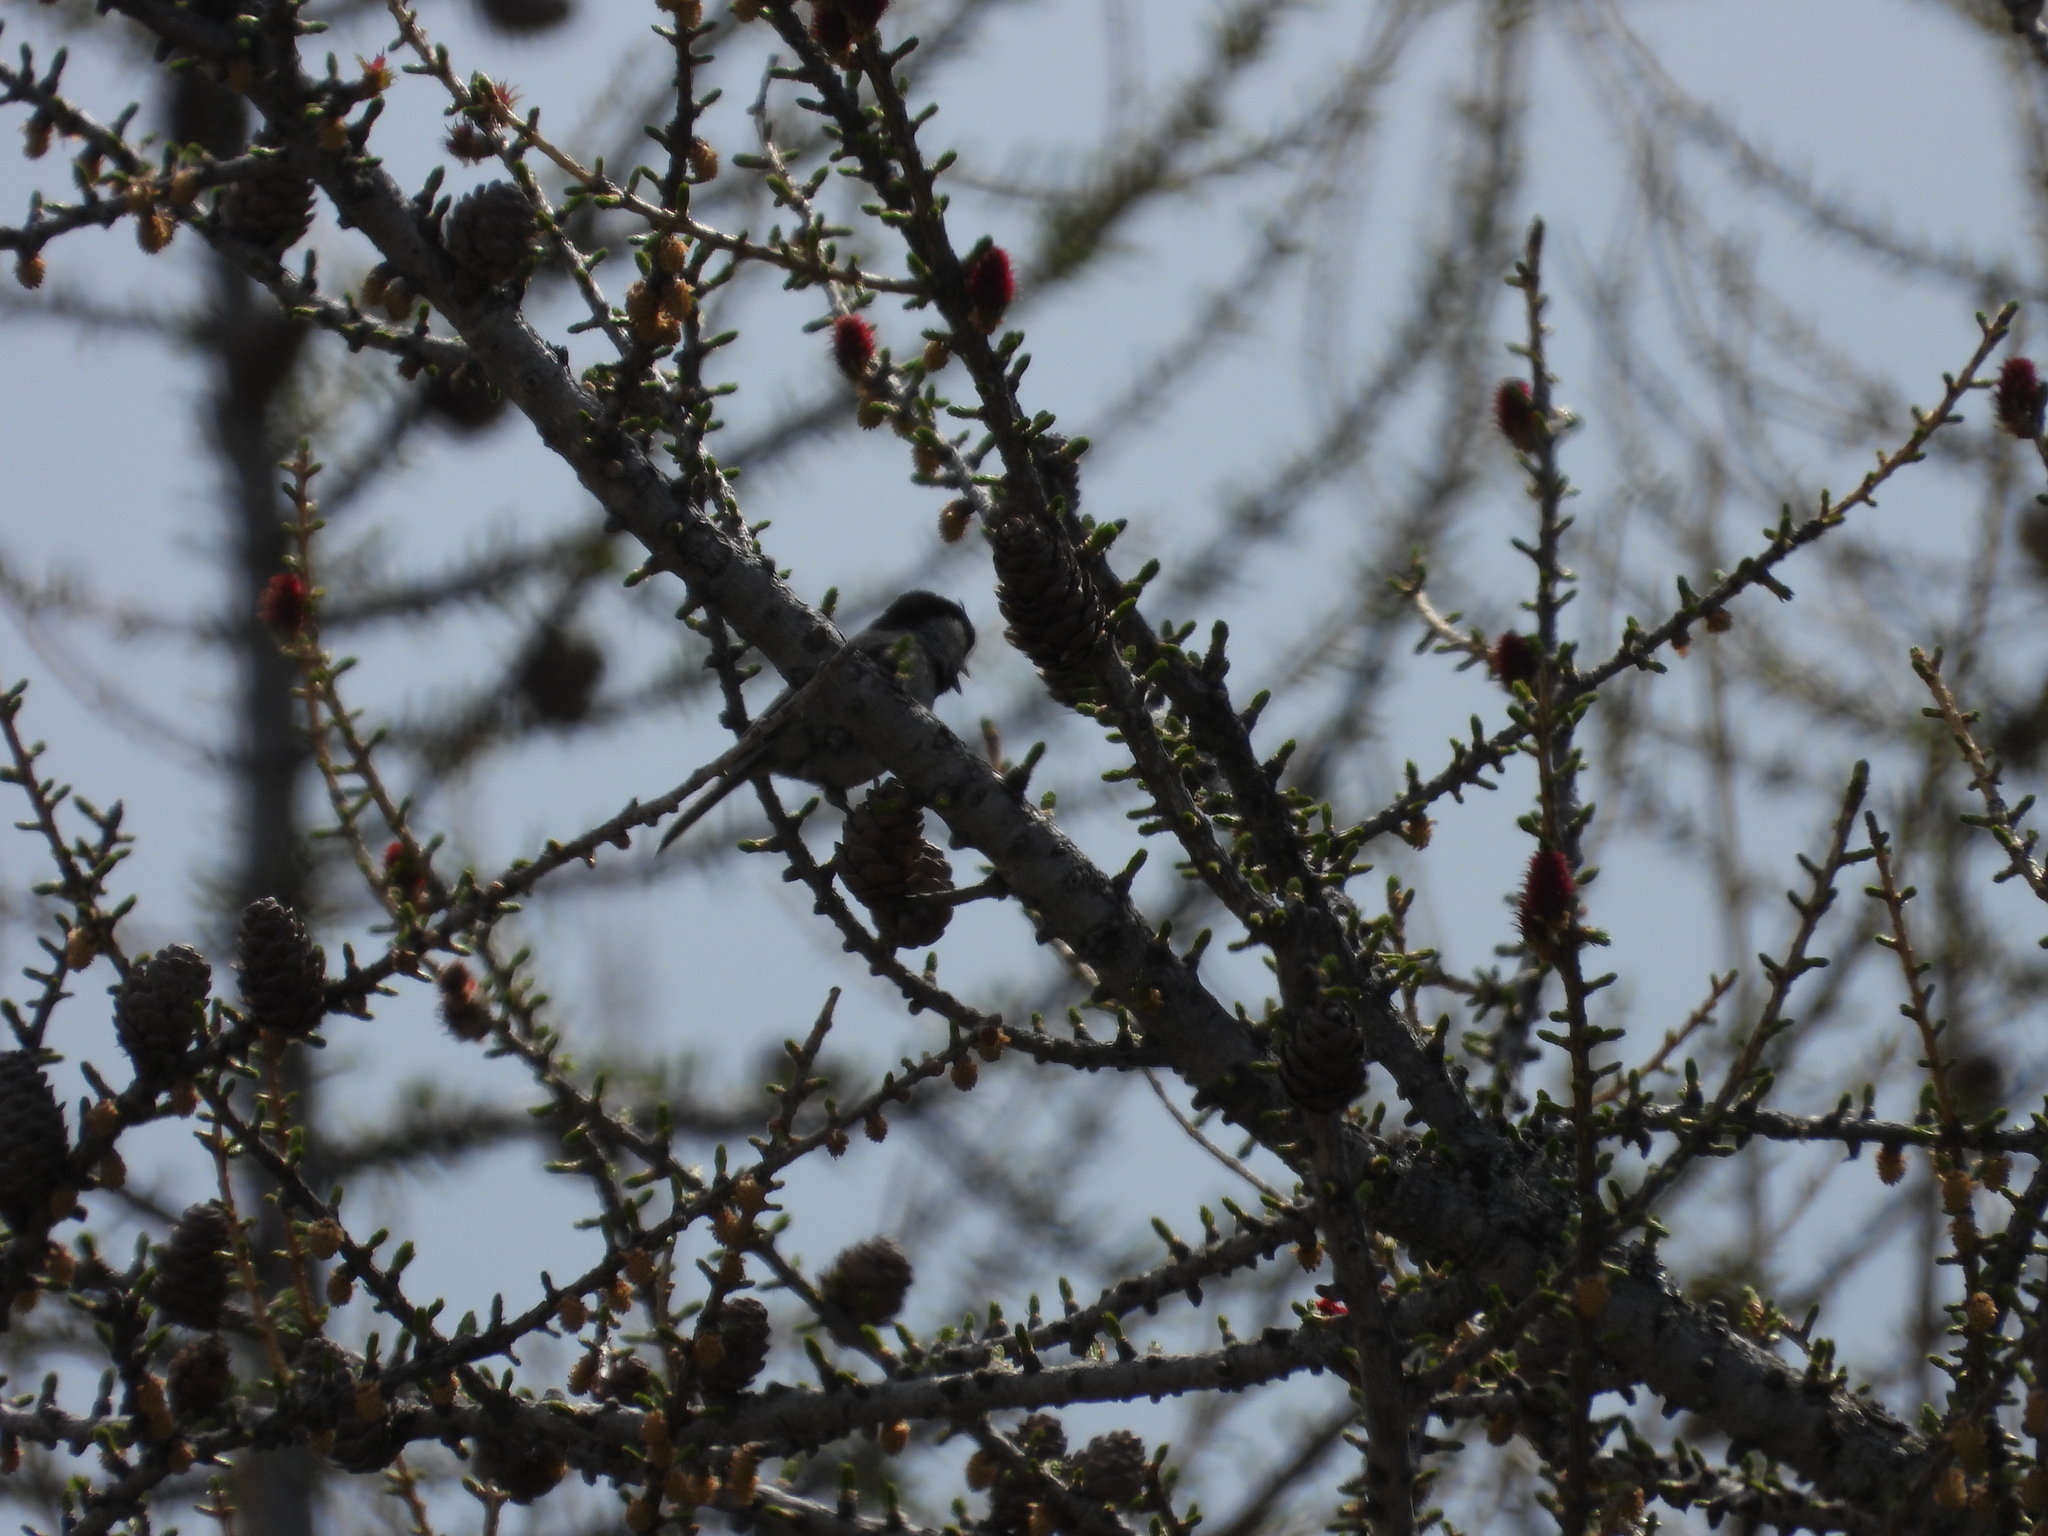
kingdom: Animalia
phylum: Chordata
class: Aves
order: Passeriformes
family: Paridae
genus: Periparus
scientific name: Periparus ater
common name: Coal tit
